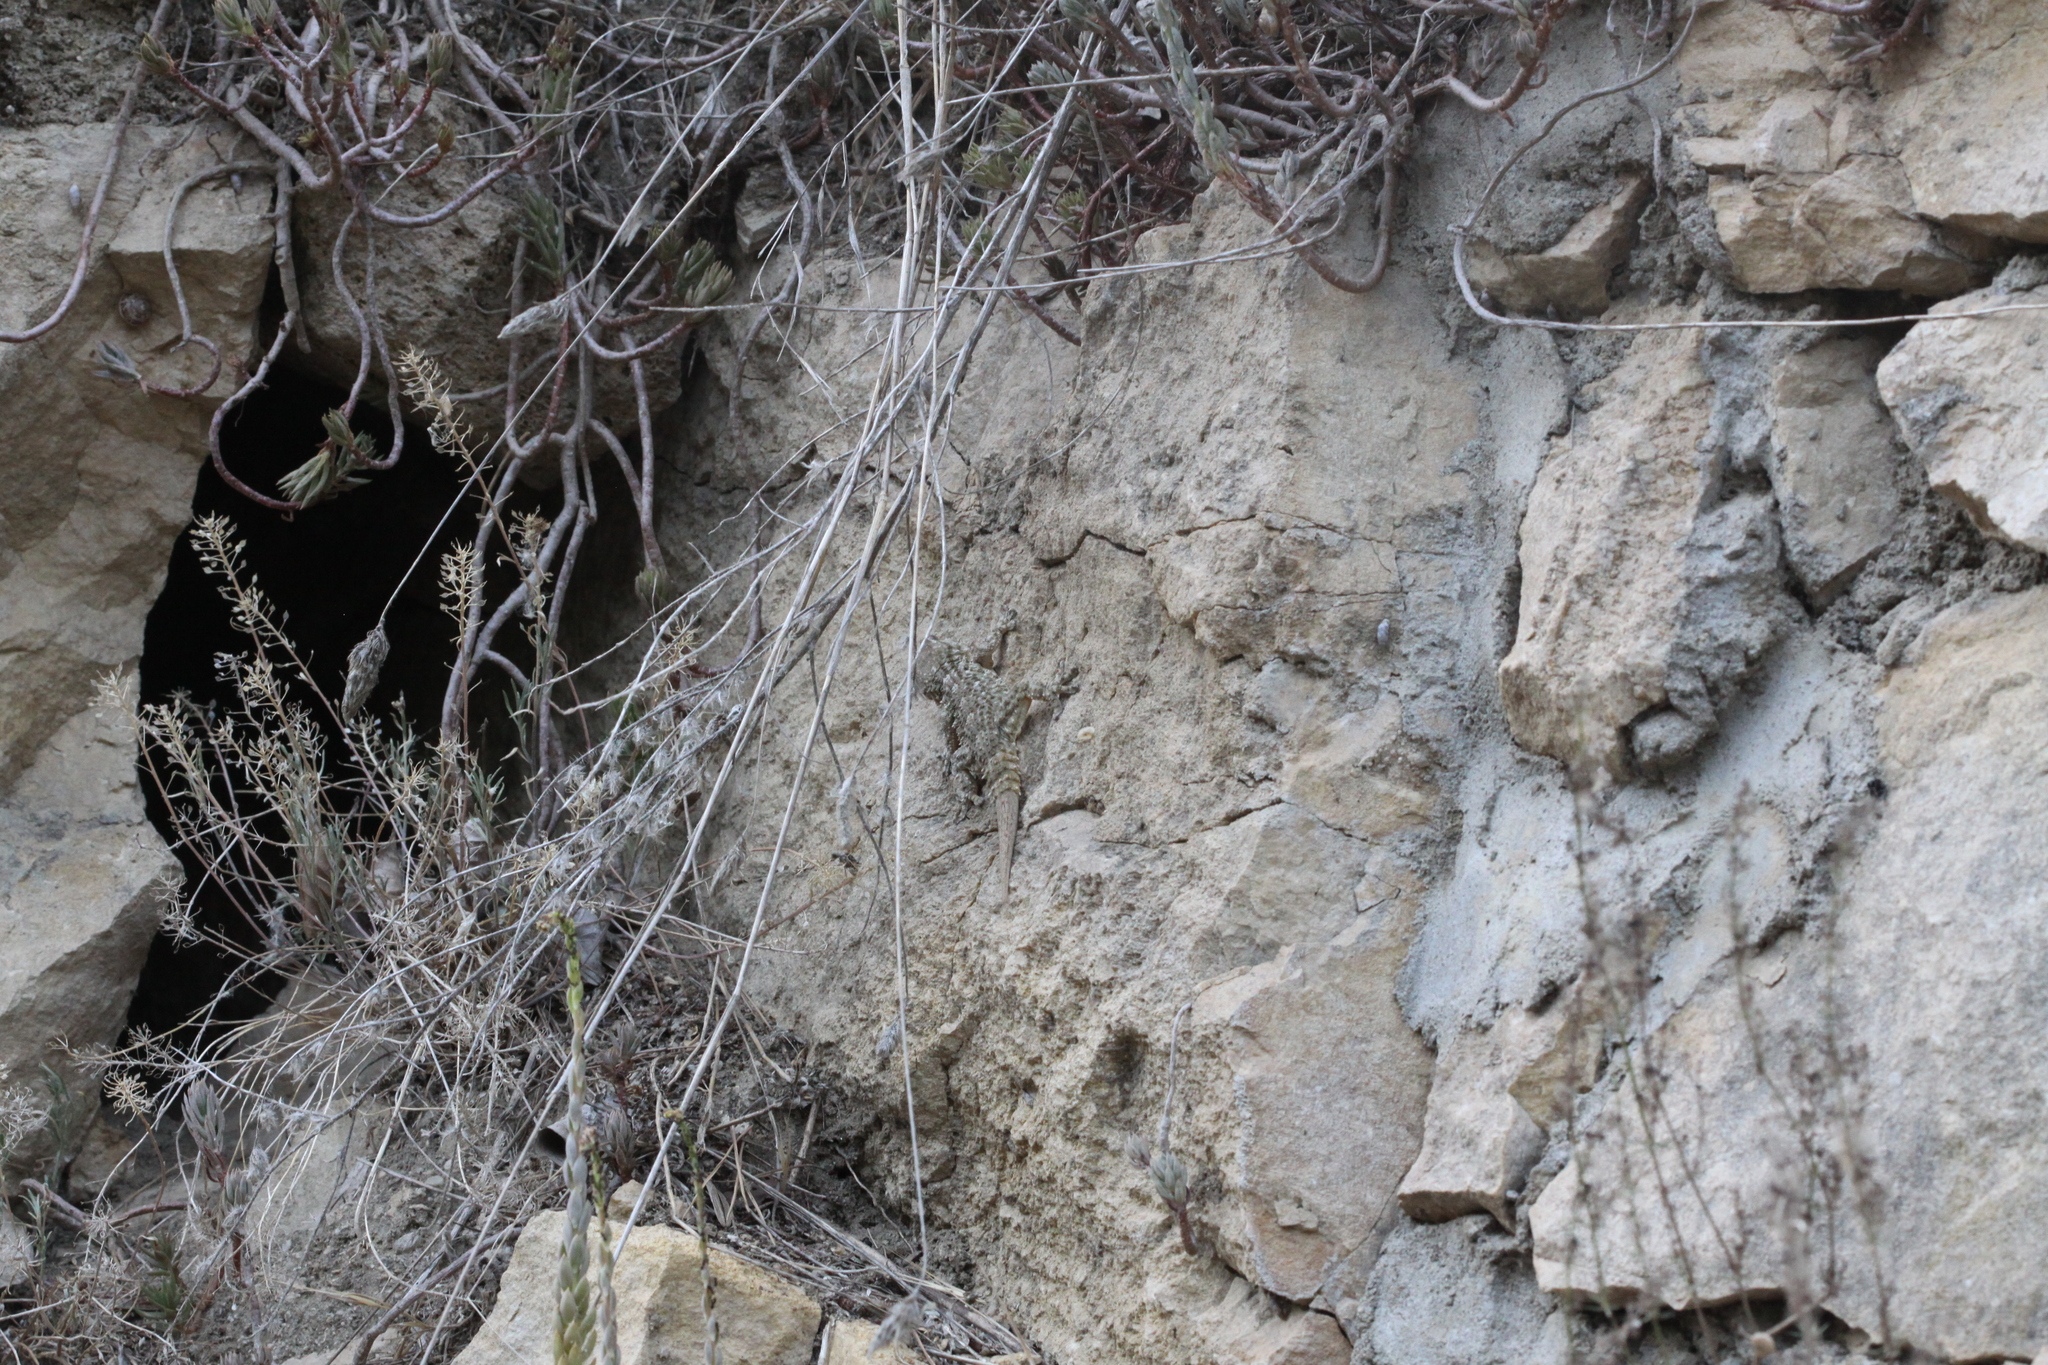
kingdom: Animalia
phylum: Chordata
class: Squamata
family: Phyllodactylidae
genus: Tarentola
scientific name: Tarentola mauritanica
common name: Moorish gecko
